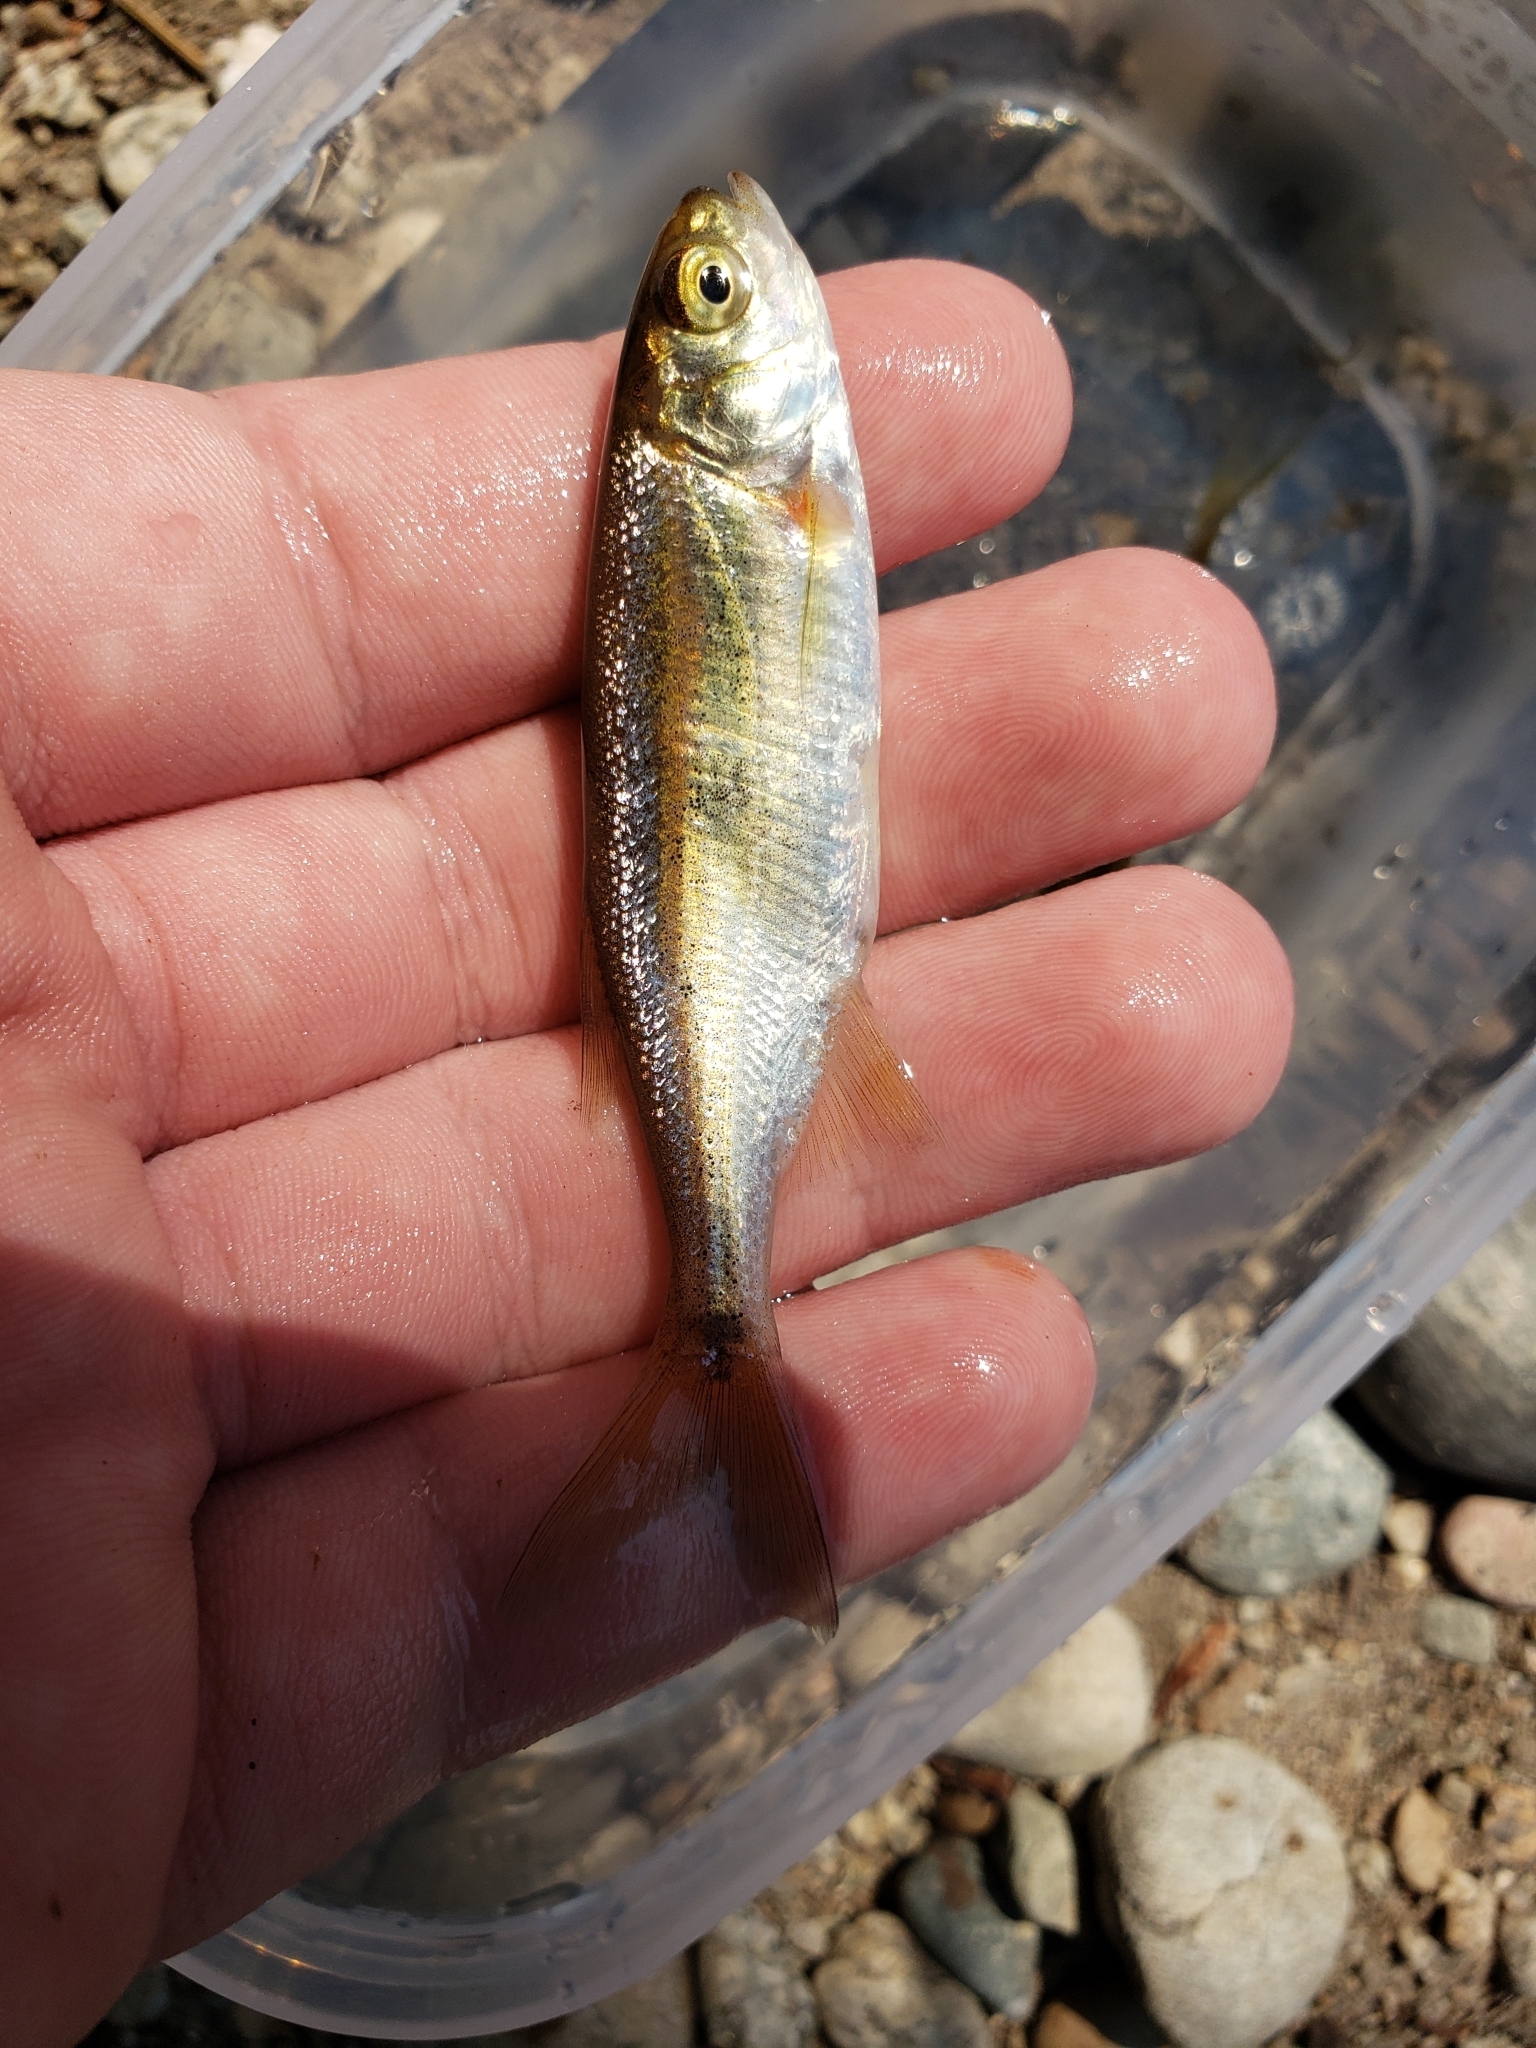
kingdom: Animalia
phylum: Chordata
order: Cypriniformes
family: Cyprinidae
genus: Richardsonius
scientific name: Richardsonius balteatus
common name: Redside shiner
